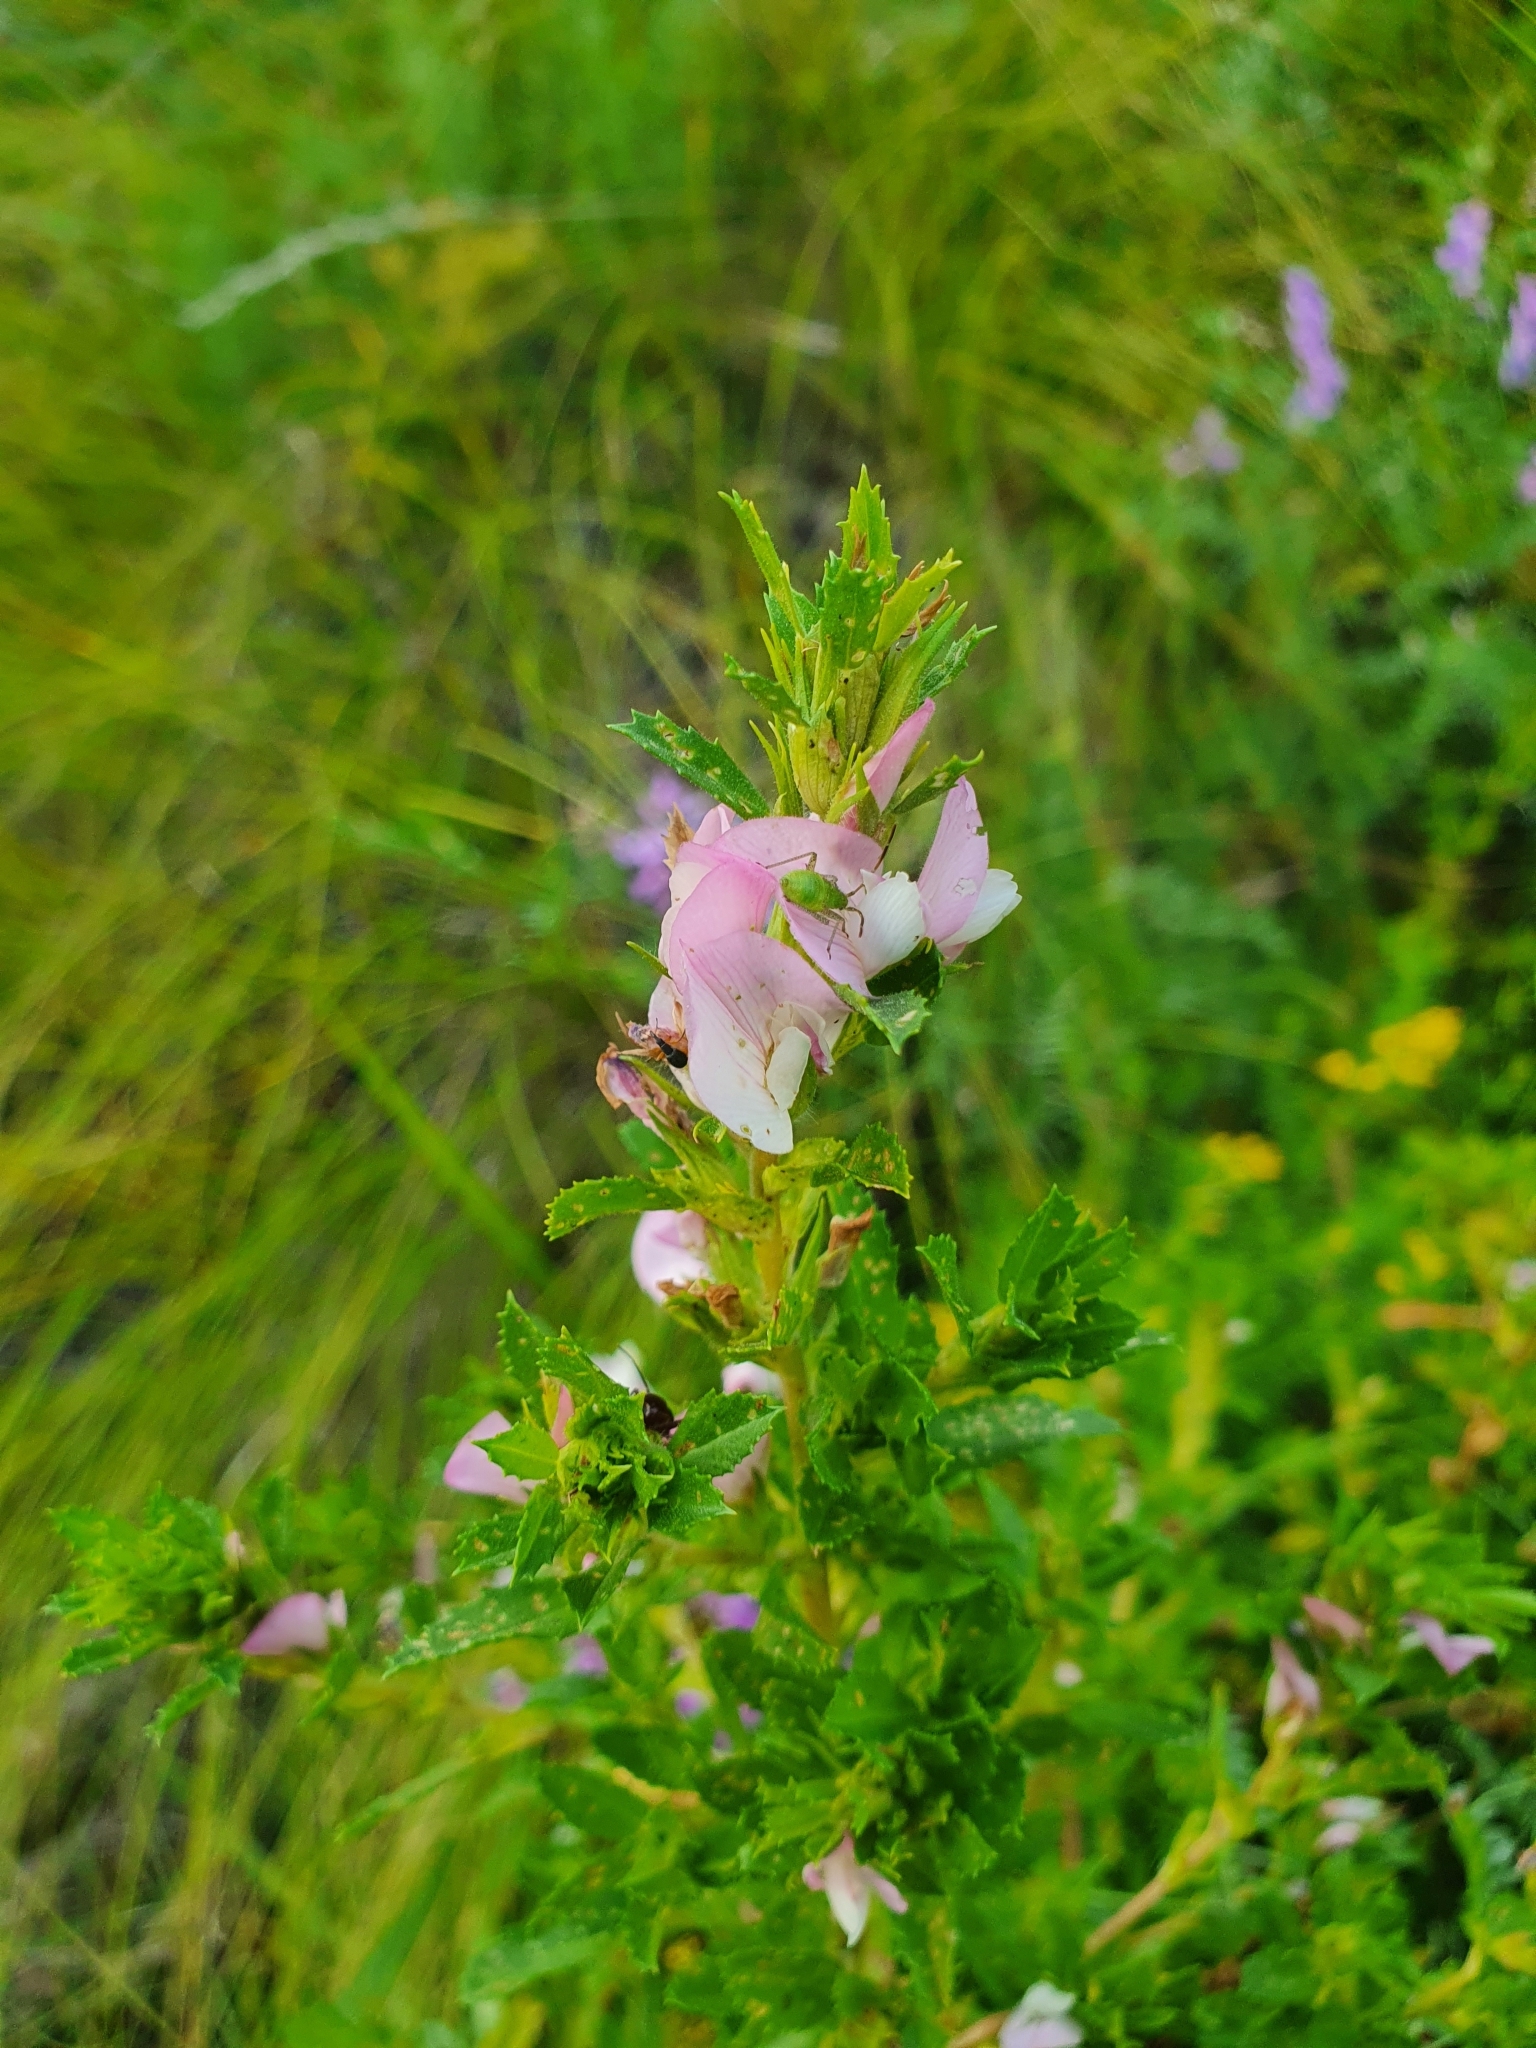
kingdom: Plantae
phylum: Tracheophyta
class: Magnoliopsida
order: Fabales
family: Fabaceae
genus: Ononis
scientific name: Ononis arvensis
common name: Field restharrow
